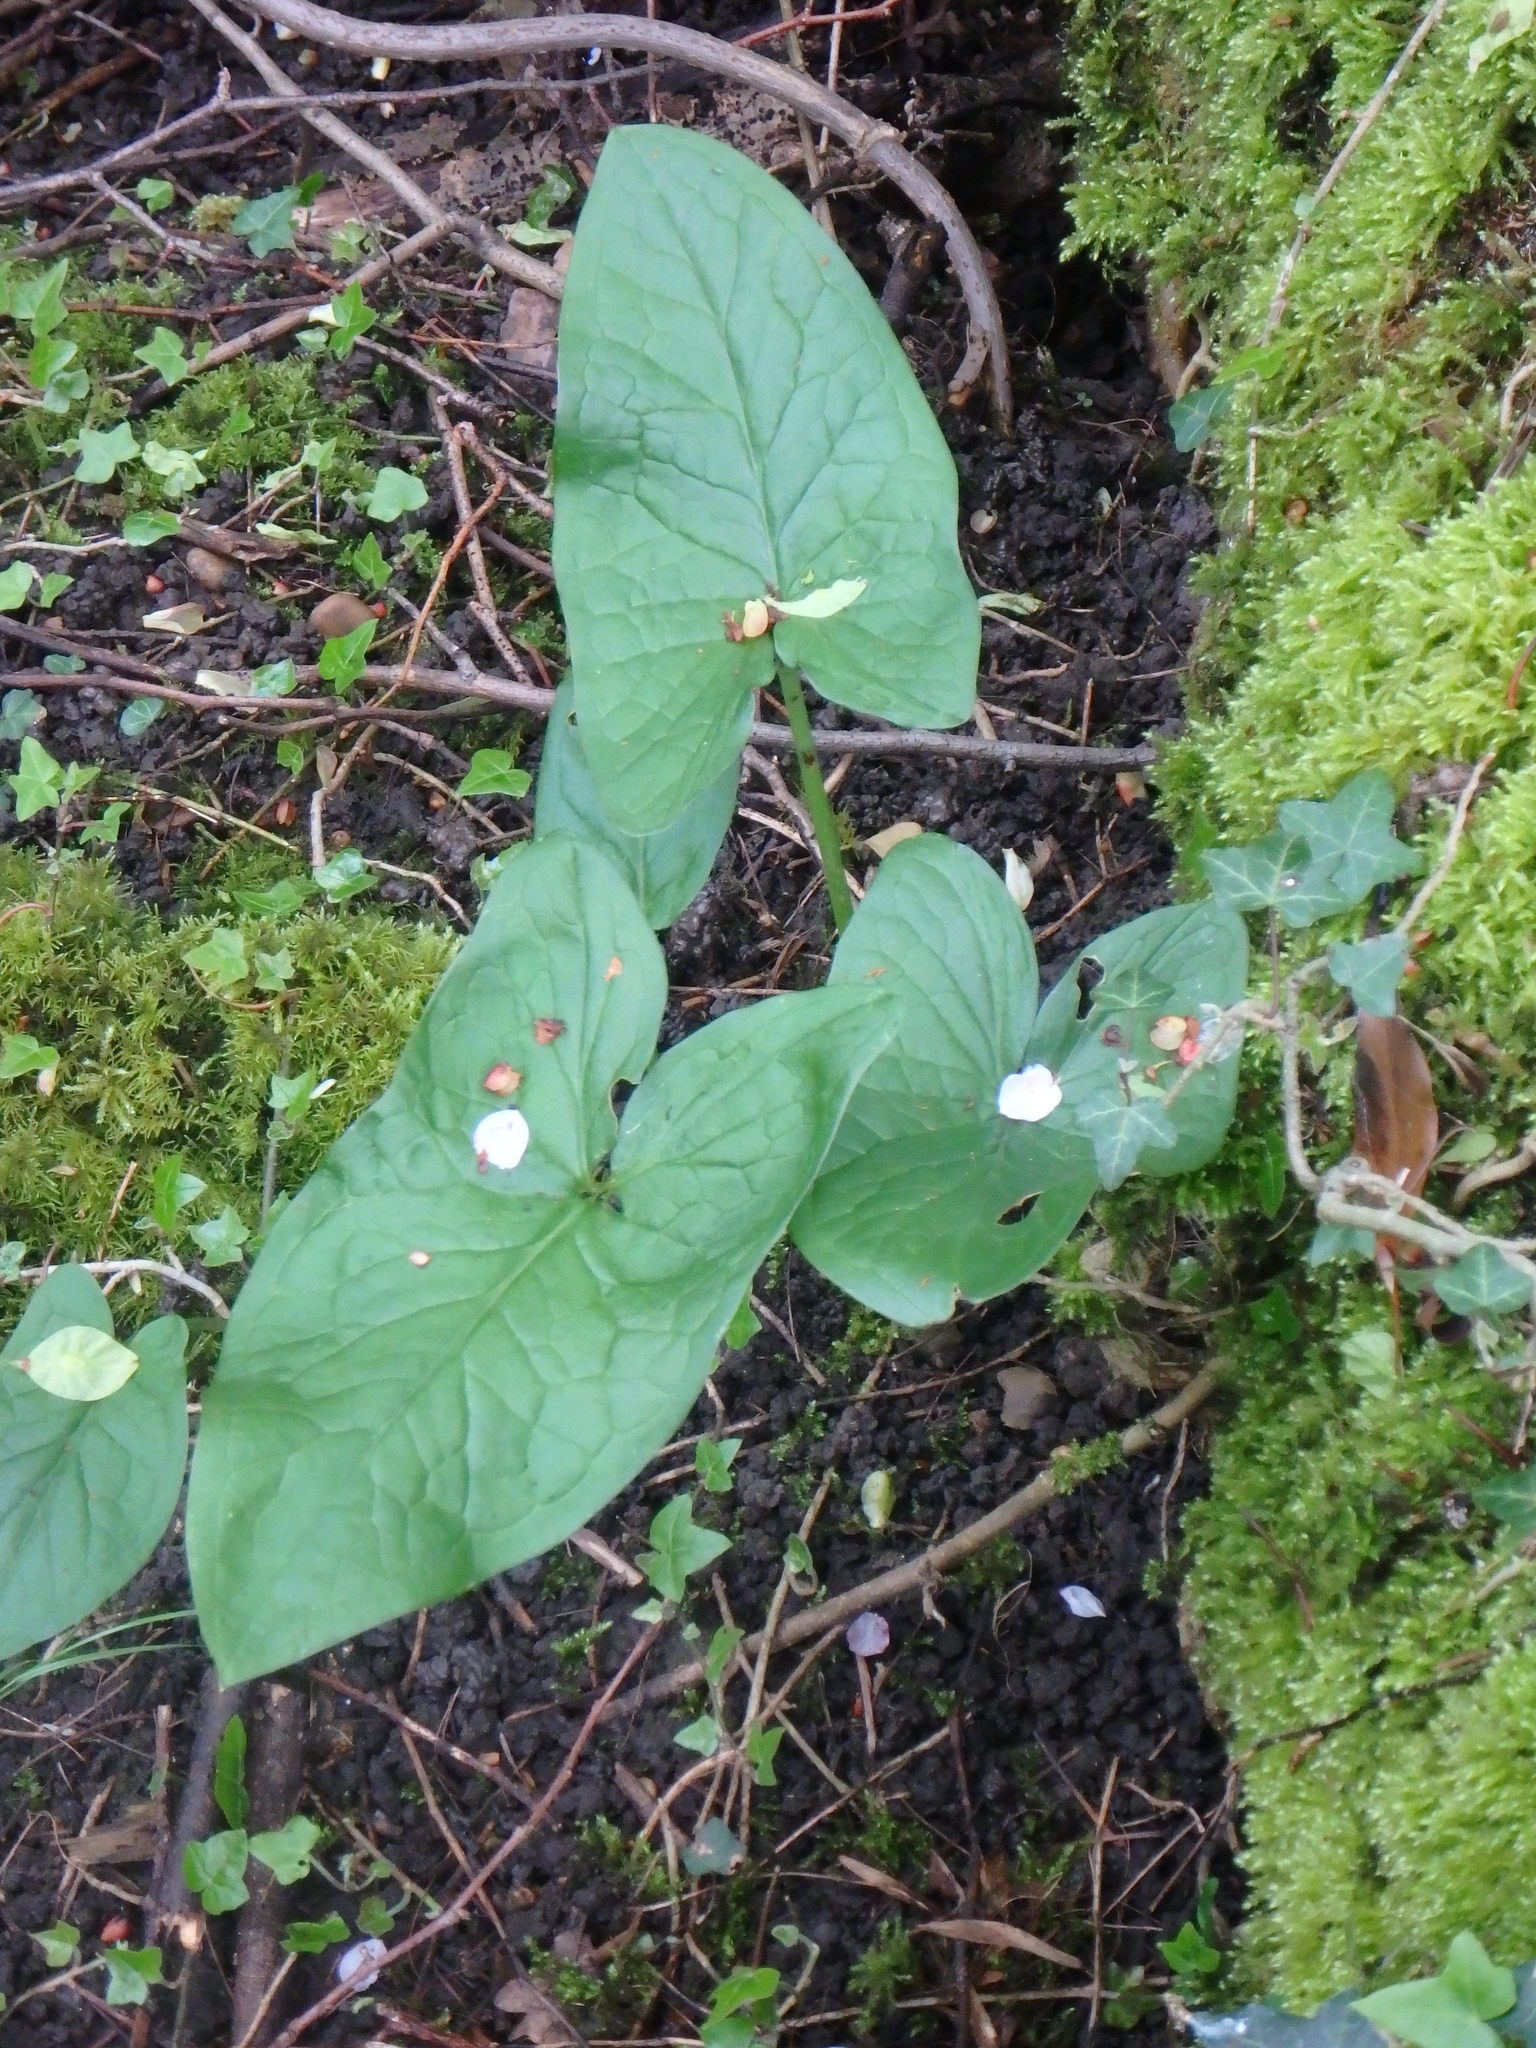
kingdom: Plantae
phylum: Tracheophyta
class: Liliopsida
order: Alismatales
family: Araceae
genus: Arum
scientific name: Arum maculatum
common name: Lords-and-ladies
